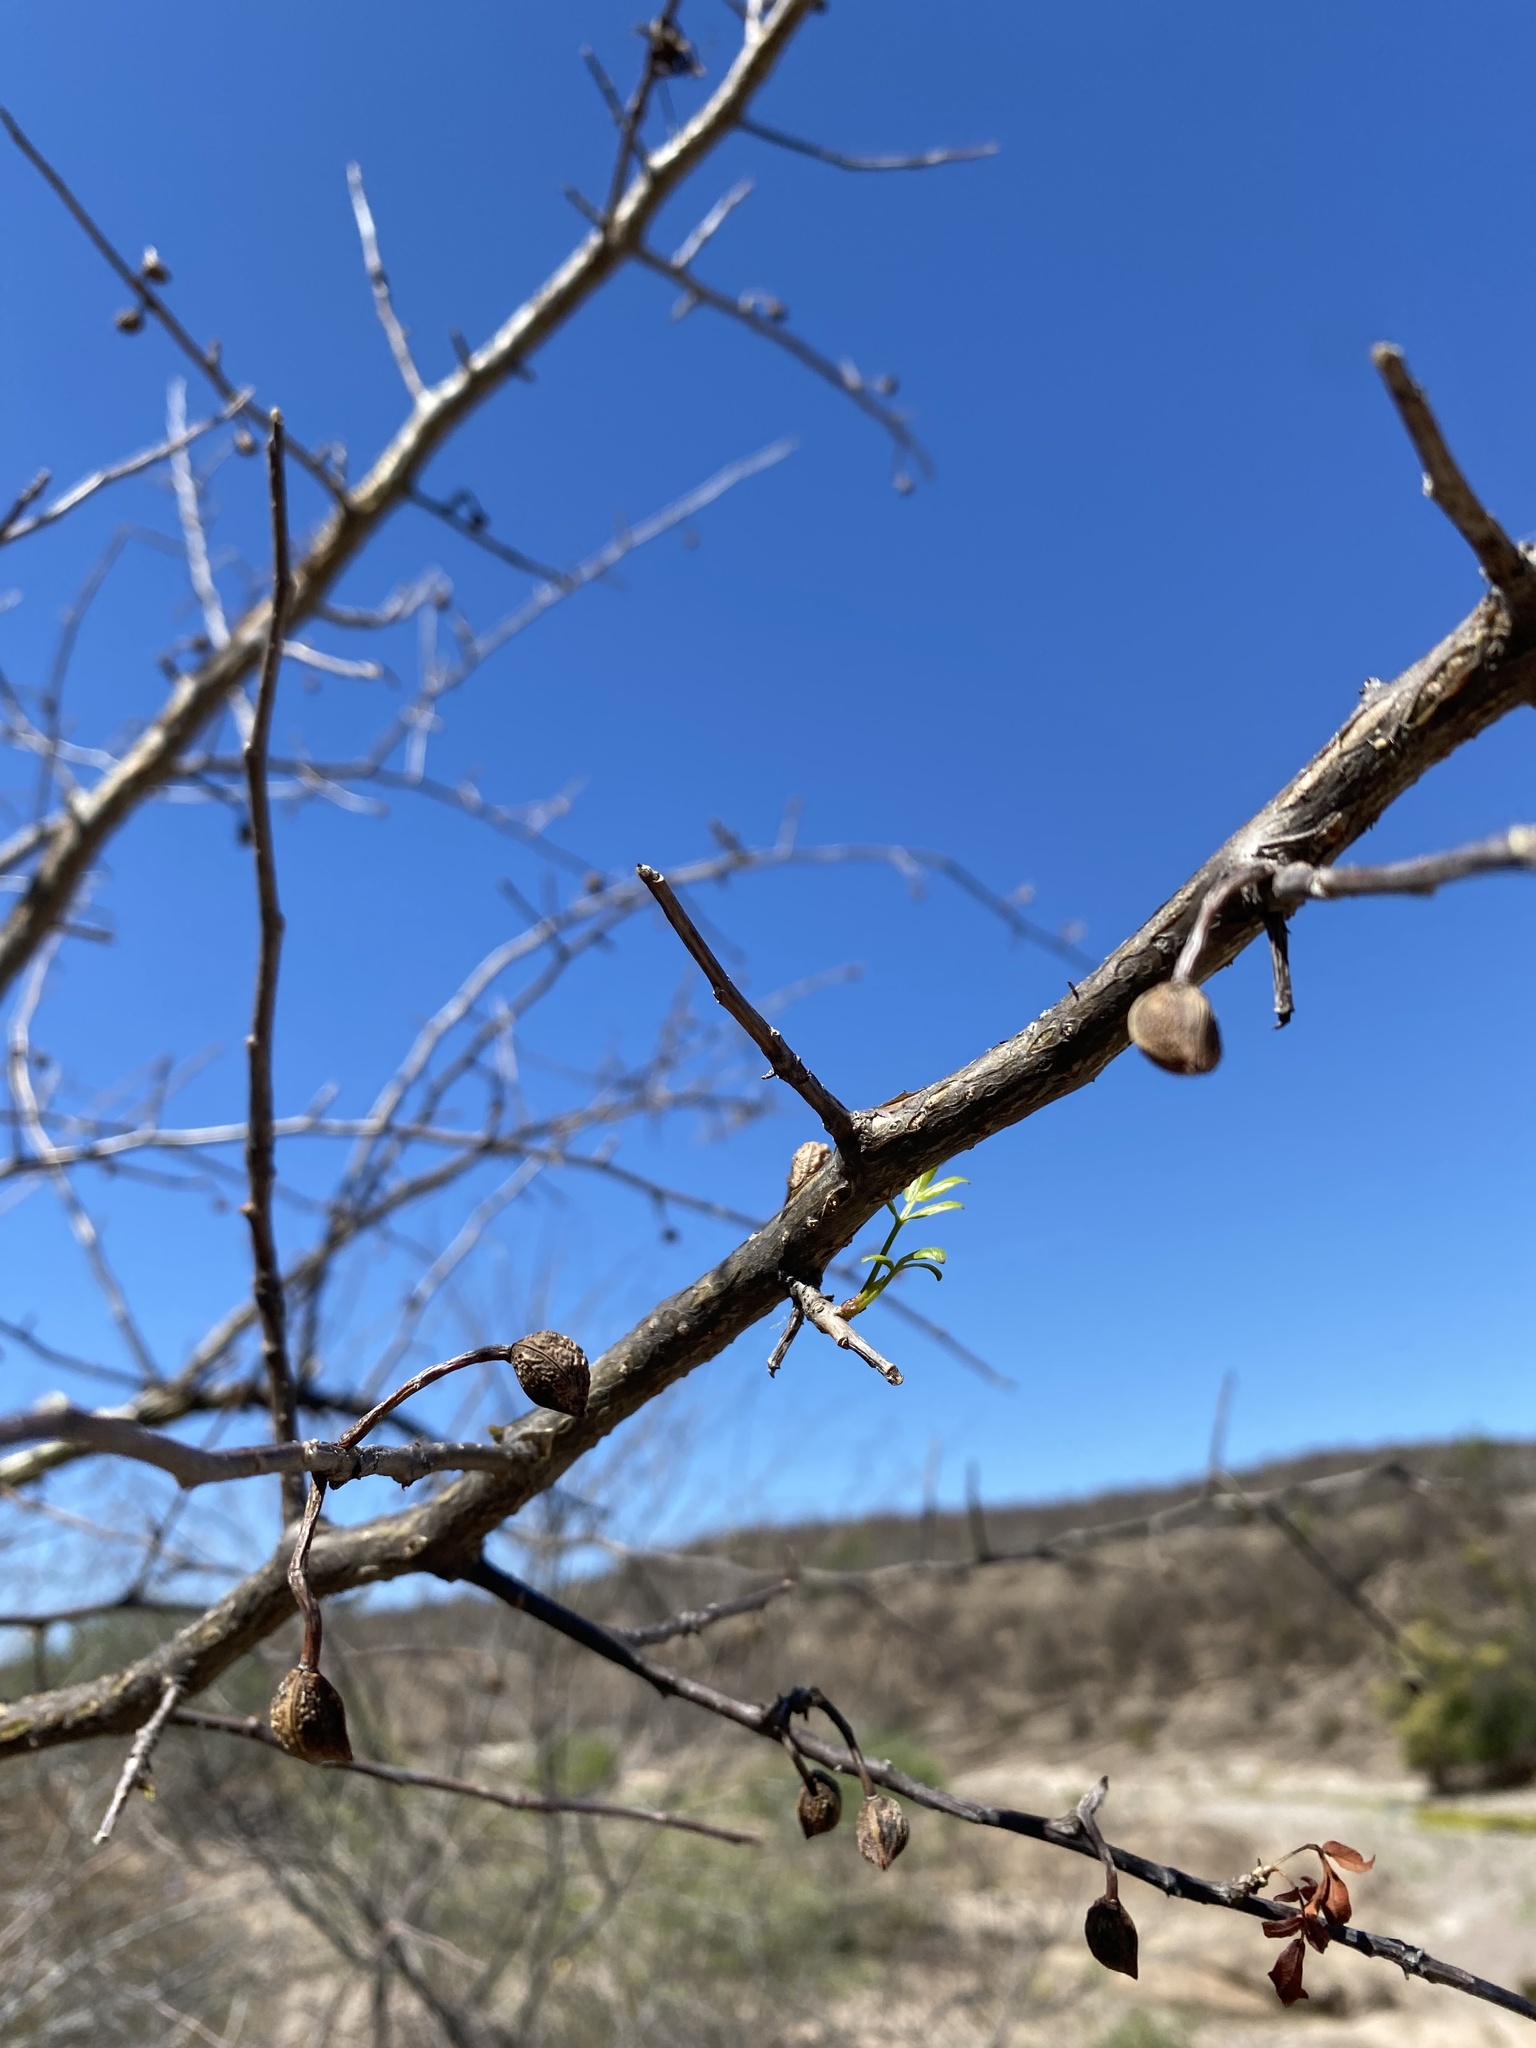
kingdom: Plantae
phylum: Tracheophyta
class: Magnoliopsida
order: Sapindales
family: Burseraceae
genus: Bursera
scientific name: Bursera microphylla
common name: Elephant tree
